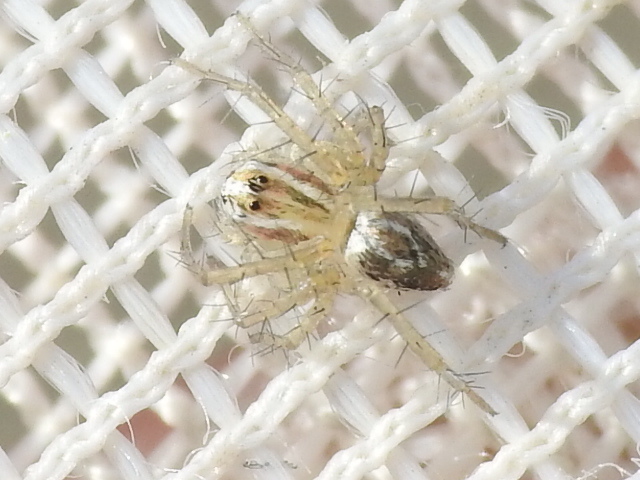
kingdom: Animalia
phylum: Arthropoda
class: Arachnida
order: Araneae
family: Oxyopidae
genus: Oxyopes
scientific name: Oxyopes salticus
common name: Lynx spiders
